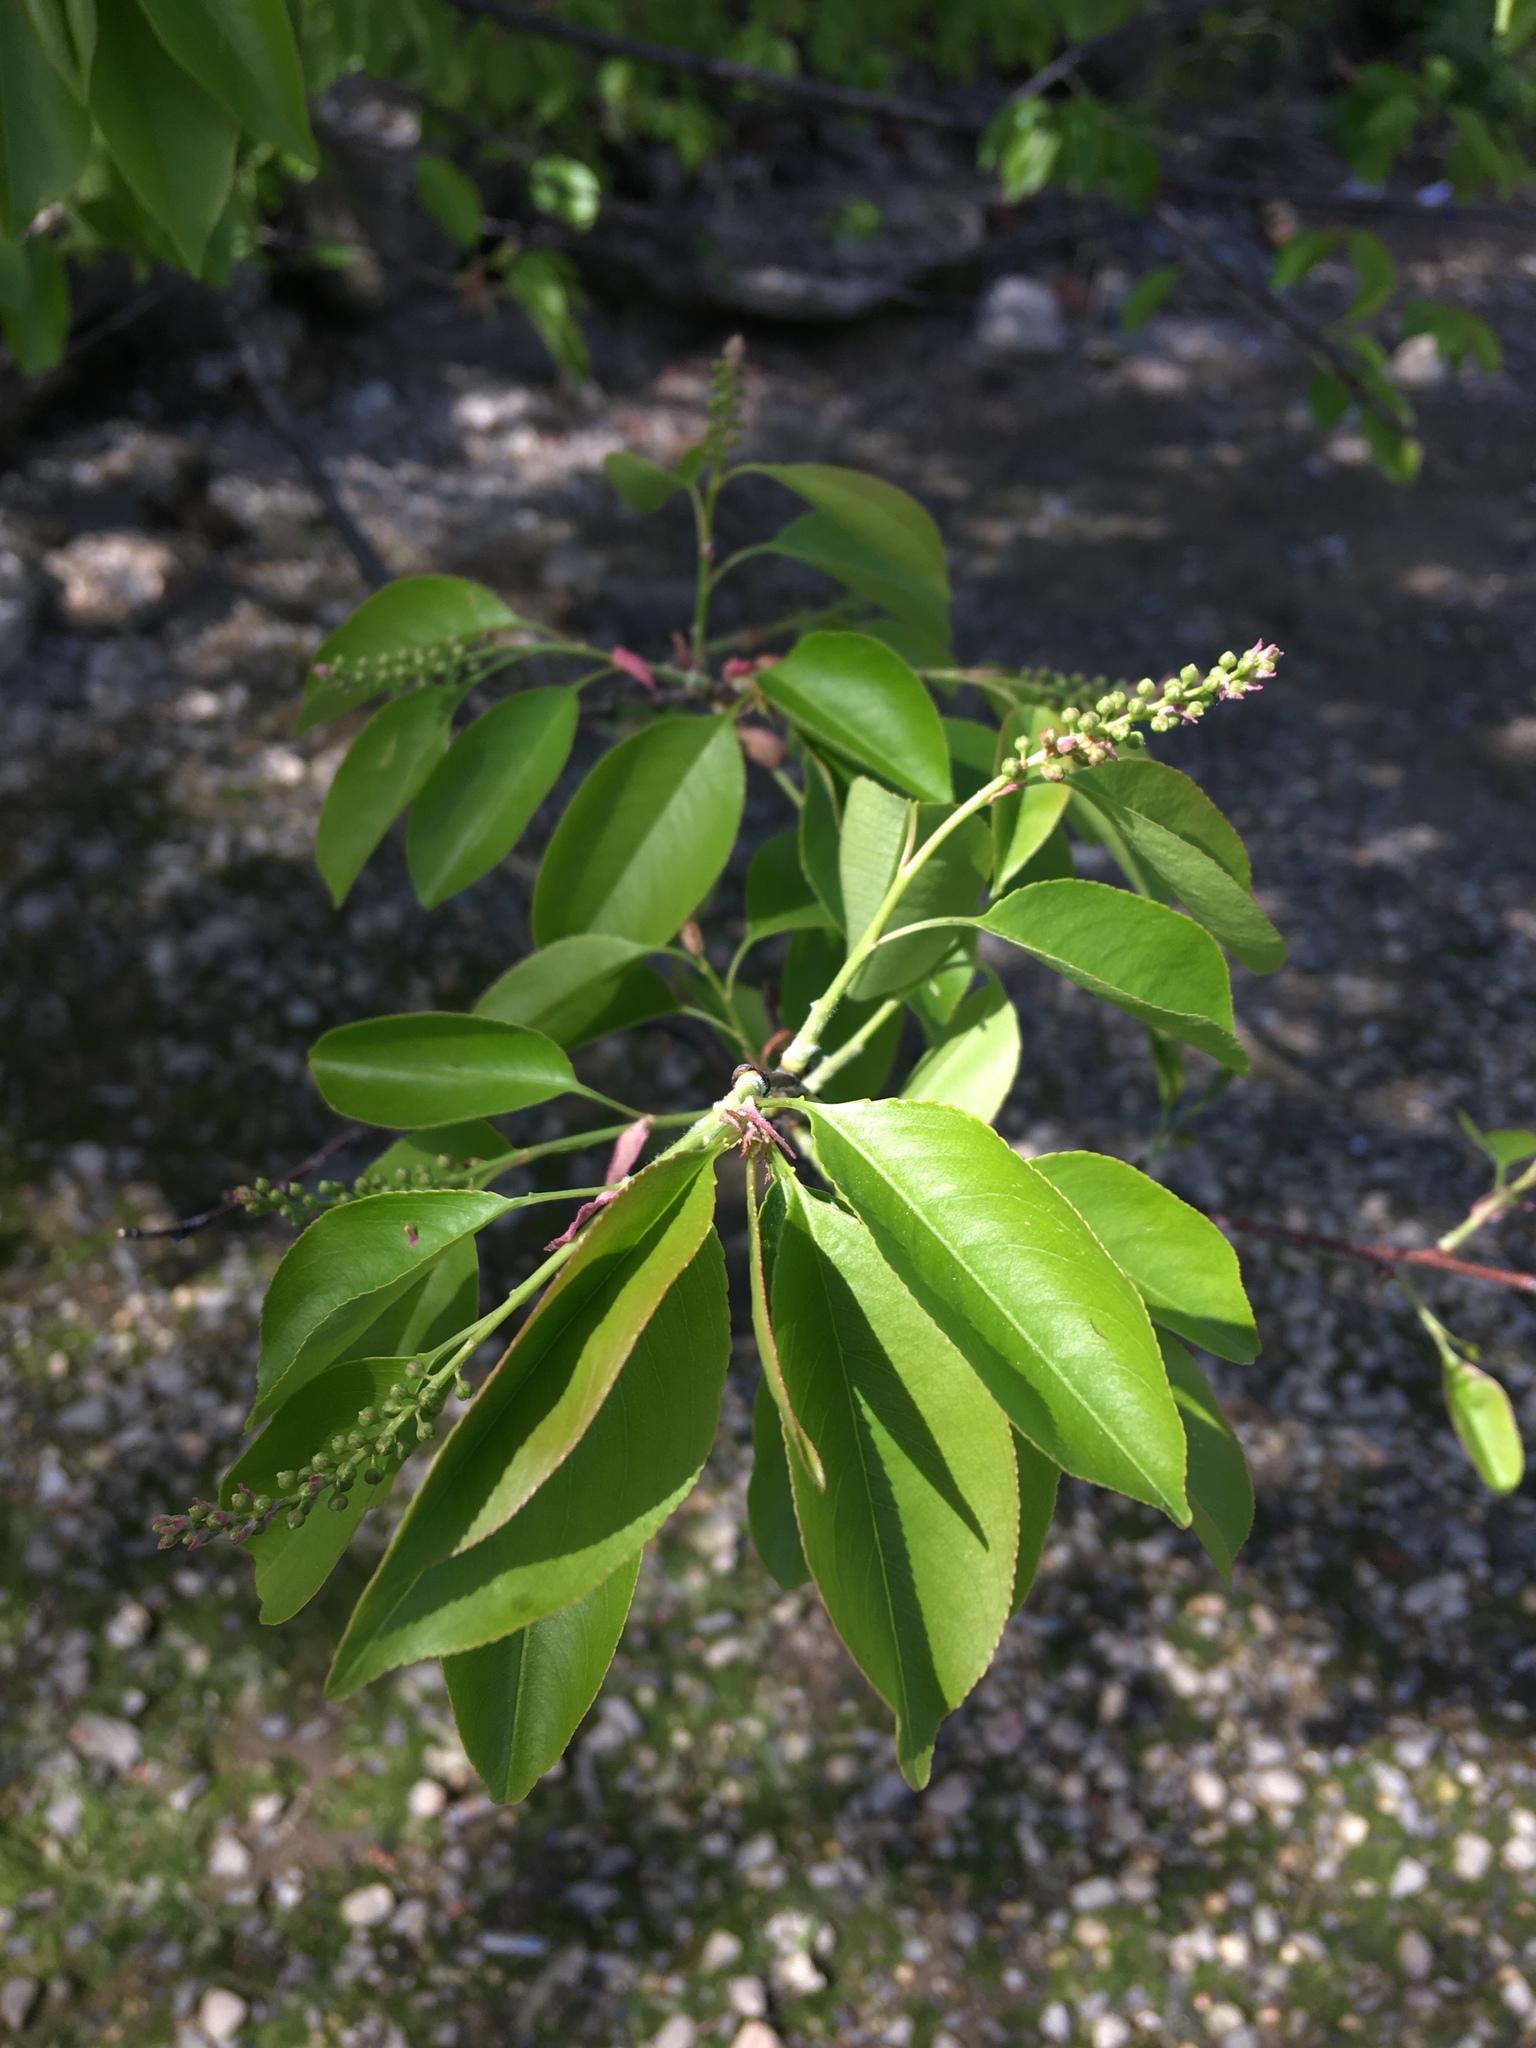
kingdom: Plantae
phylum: Tracheophyta
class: Magnoliopsida
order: Rosales
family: Rosaceae
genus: Prunus
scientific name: Prunus serotina
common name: Black cherry
